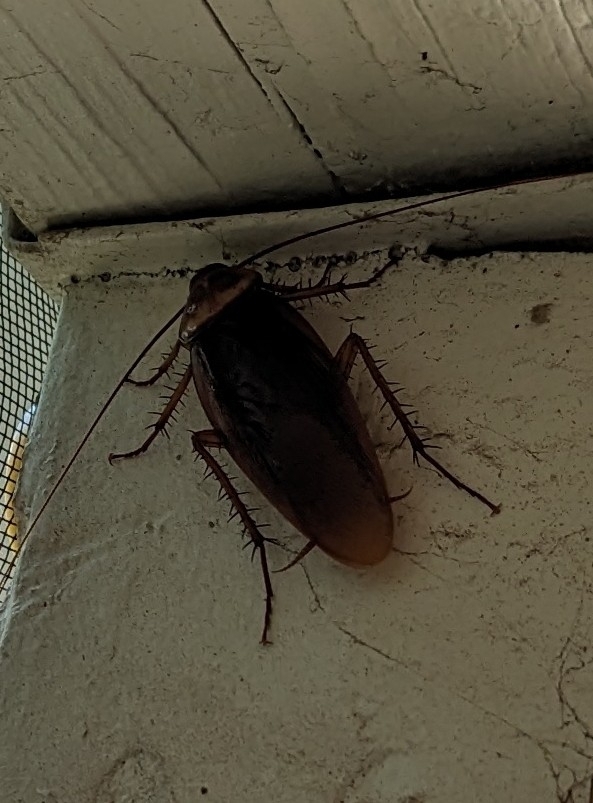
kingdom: Animalia
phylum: Arthropoda
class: Insecta
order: Blattodea
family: Blattidae
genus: Periplaneta
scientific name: Periplaneta americana
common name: American cockroach
